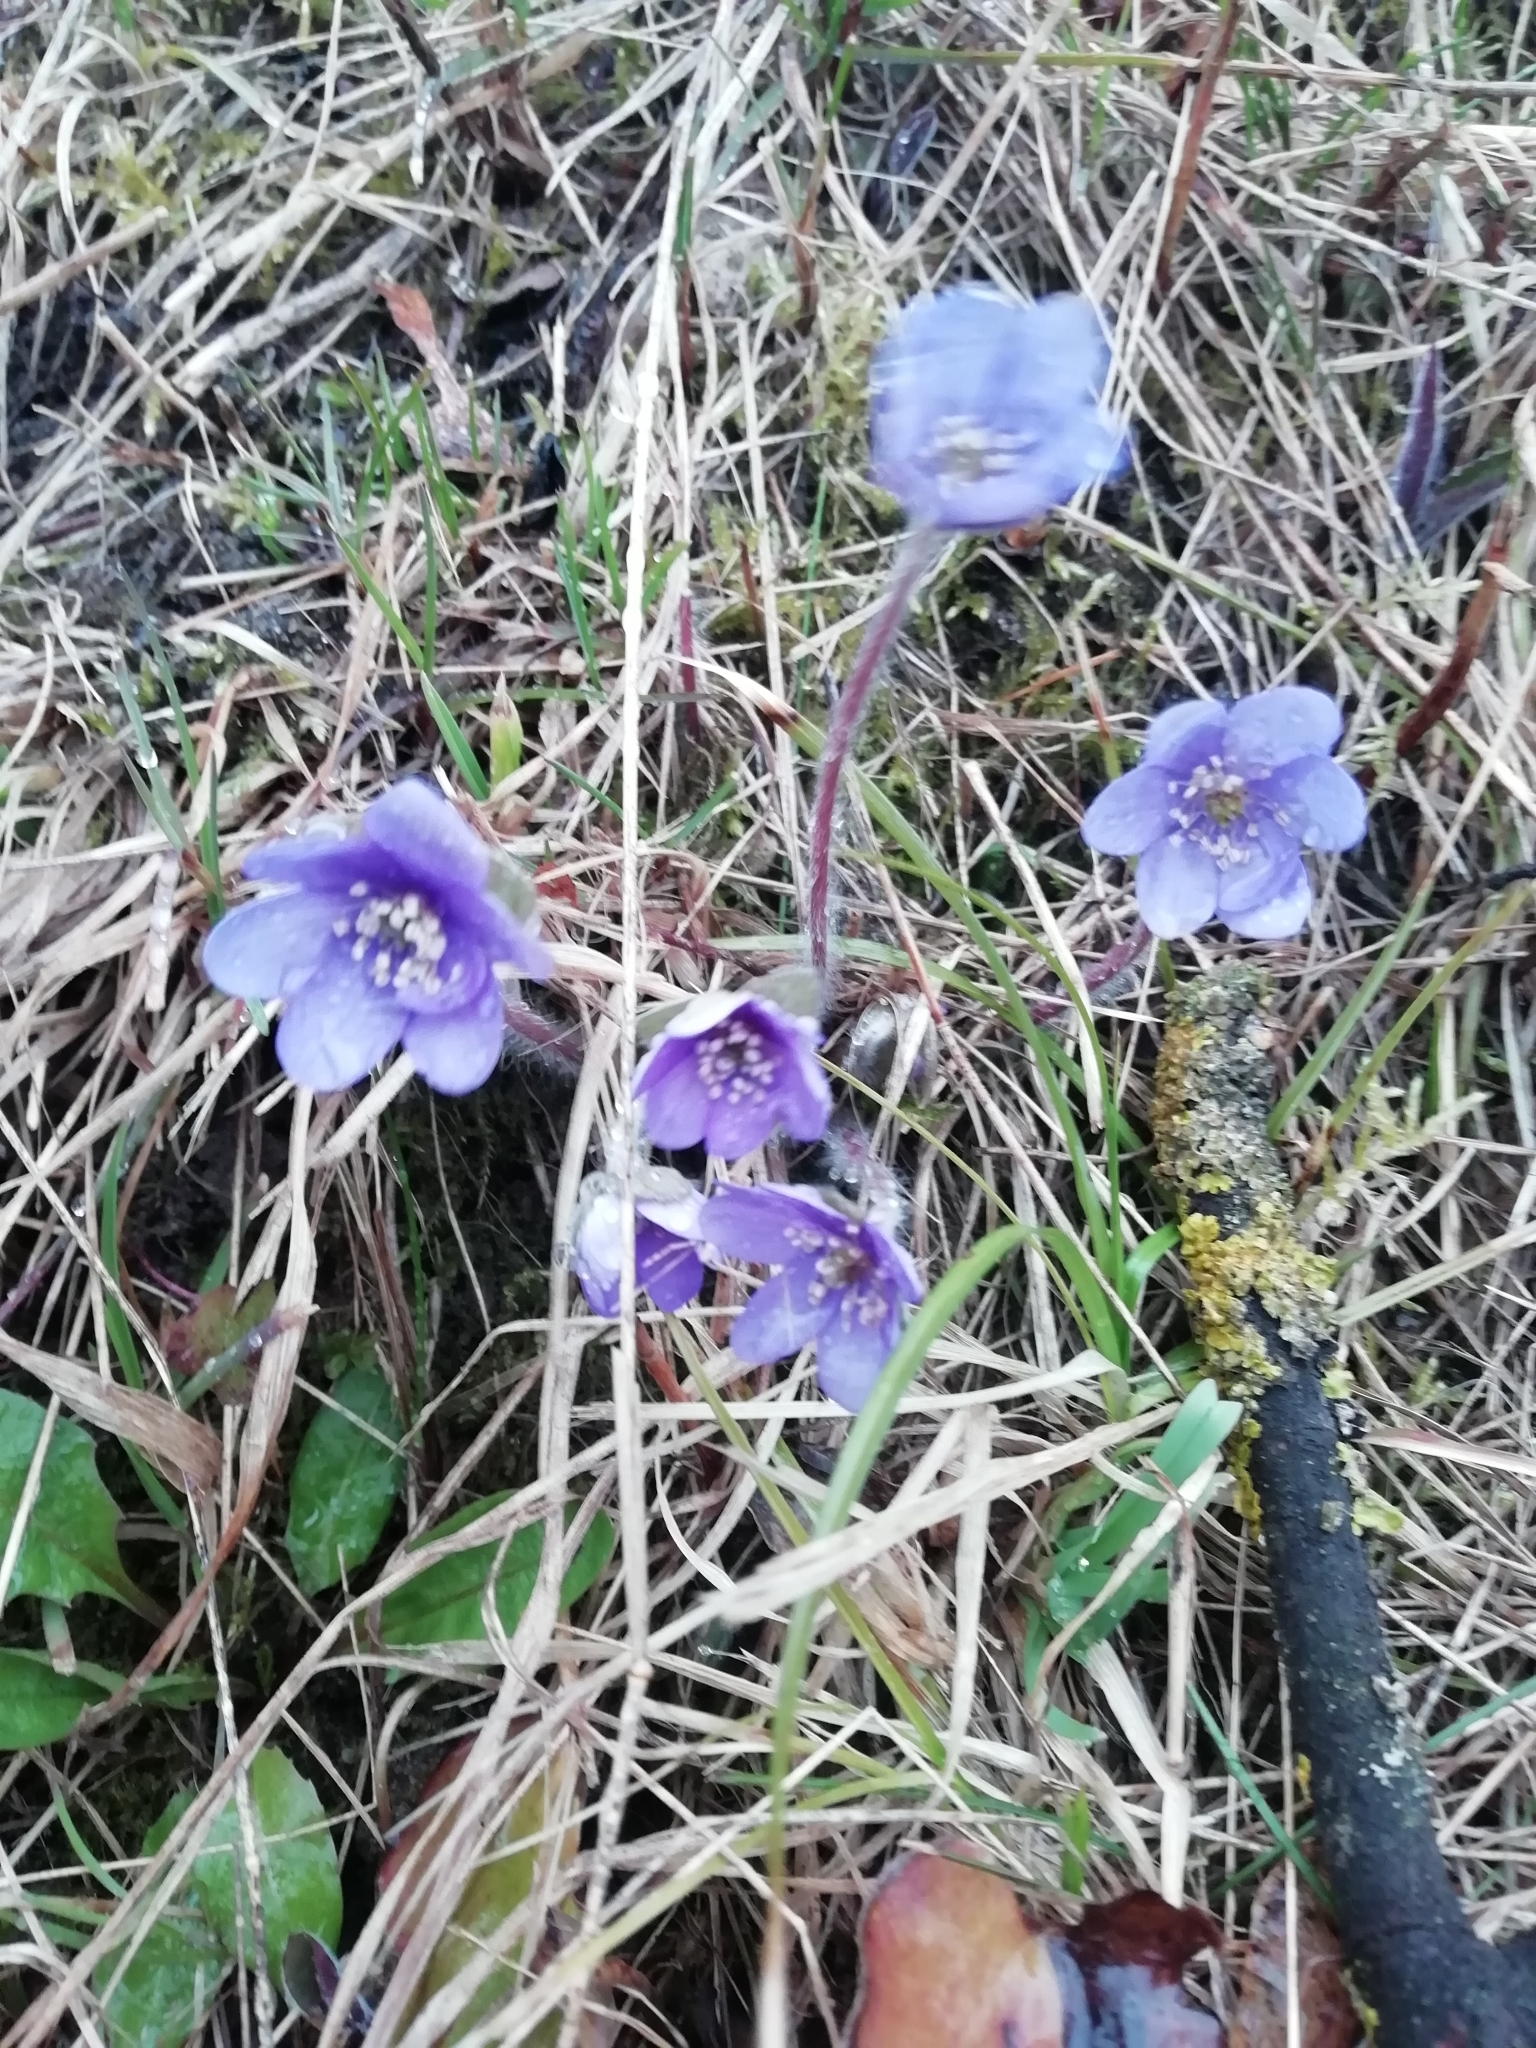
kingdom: Plantae
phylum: Tracheophyta
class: Magnoliopsida
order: Ranunculales
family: Ranunculaceae
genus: Hepatica
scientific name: Hepatica nobilis
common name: Liverleaf
